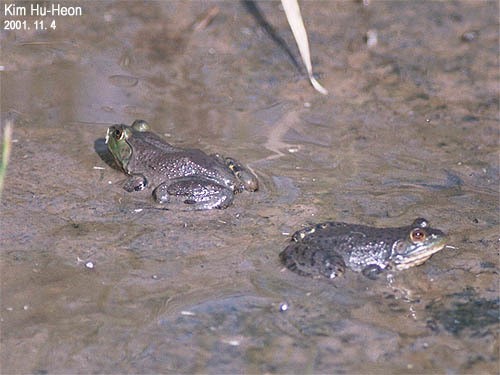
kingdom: Animalia
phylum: Chordata
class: Amphibia
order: Anura
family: Ranidae
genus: Lithobates
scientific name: Lithobates catesbeianus
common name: American bullfrog
